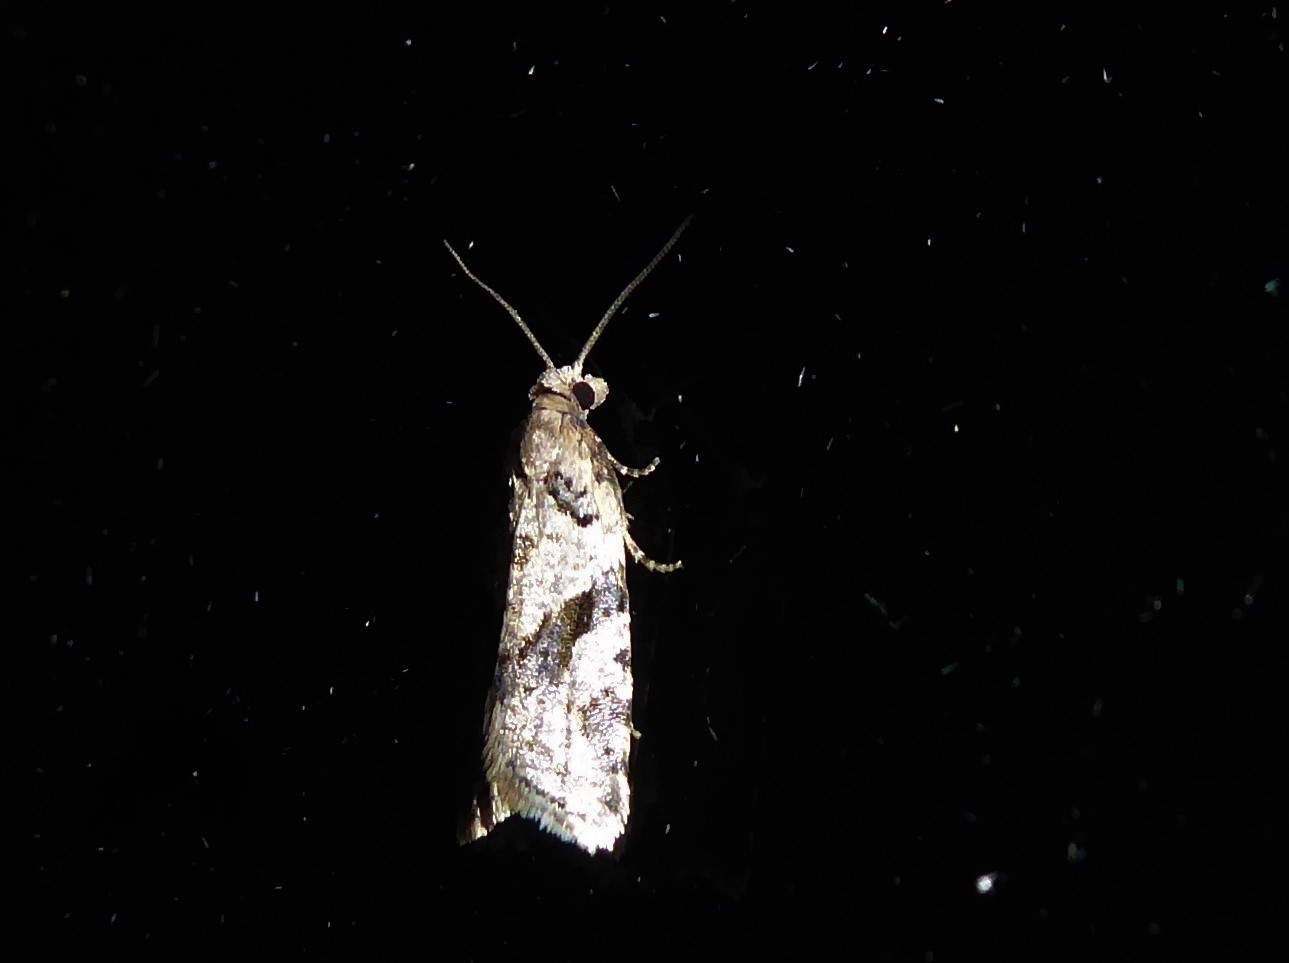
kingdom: Animalia
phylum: Arthropoda
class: Insecta
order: Lepidoptera
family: Tortricidae
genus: Capua
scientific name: Capua semiferana
